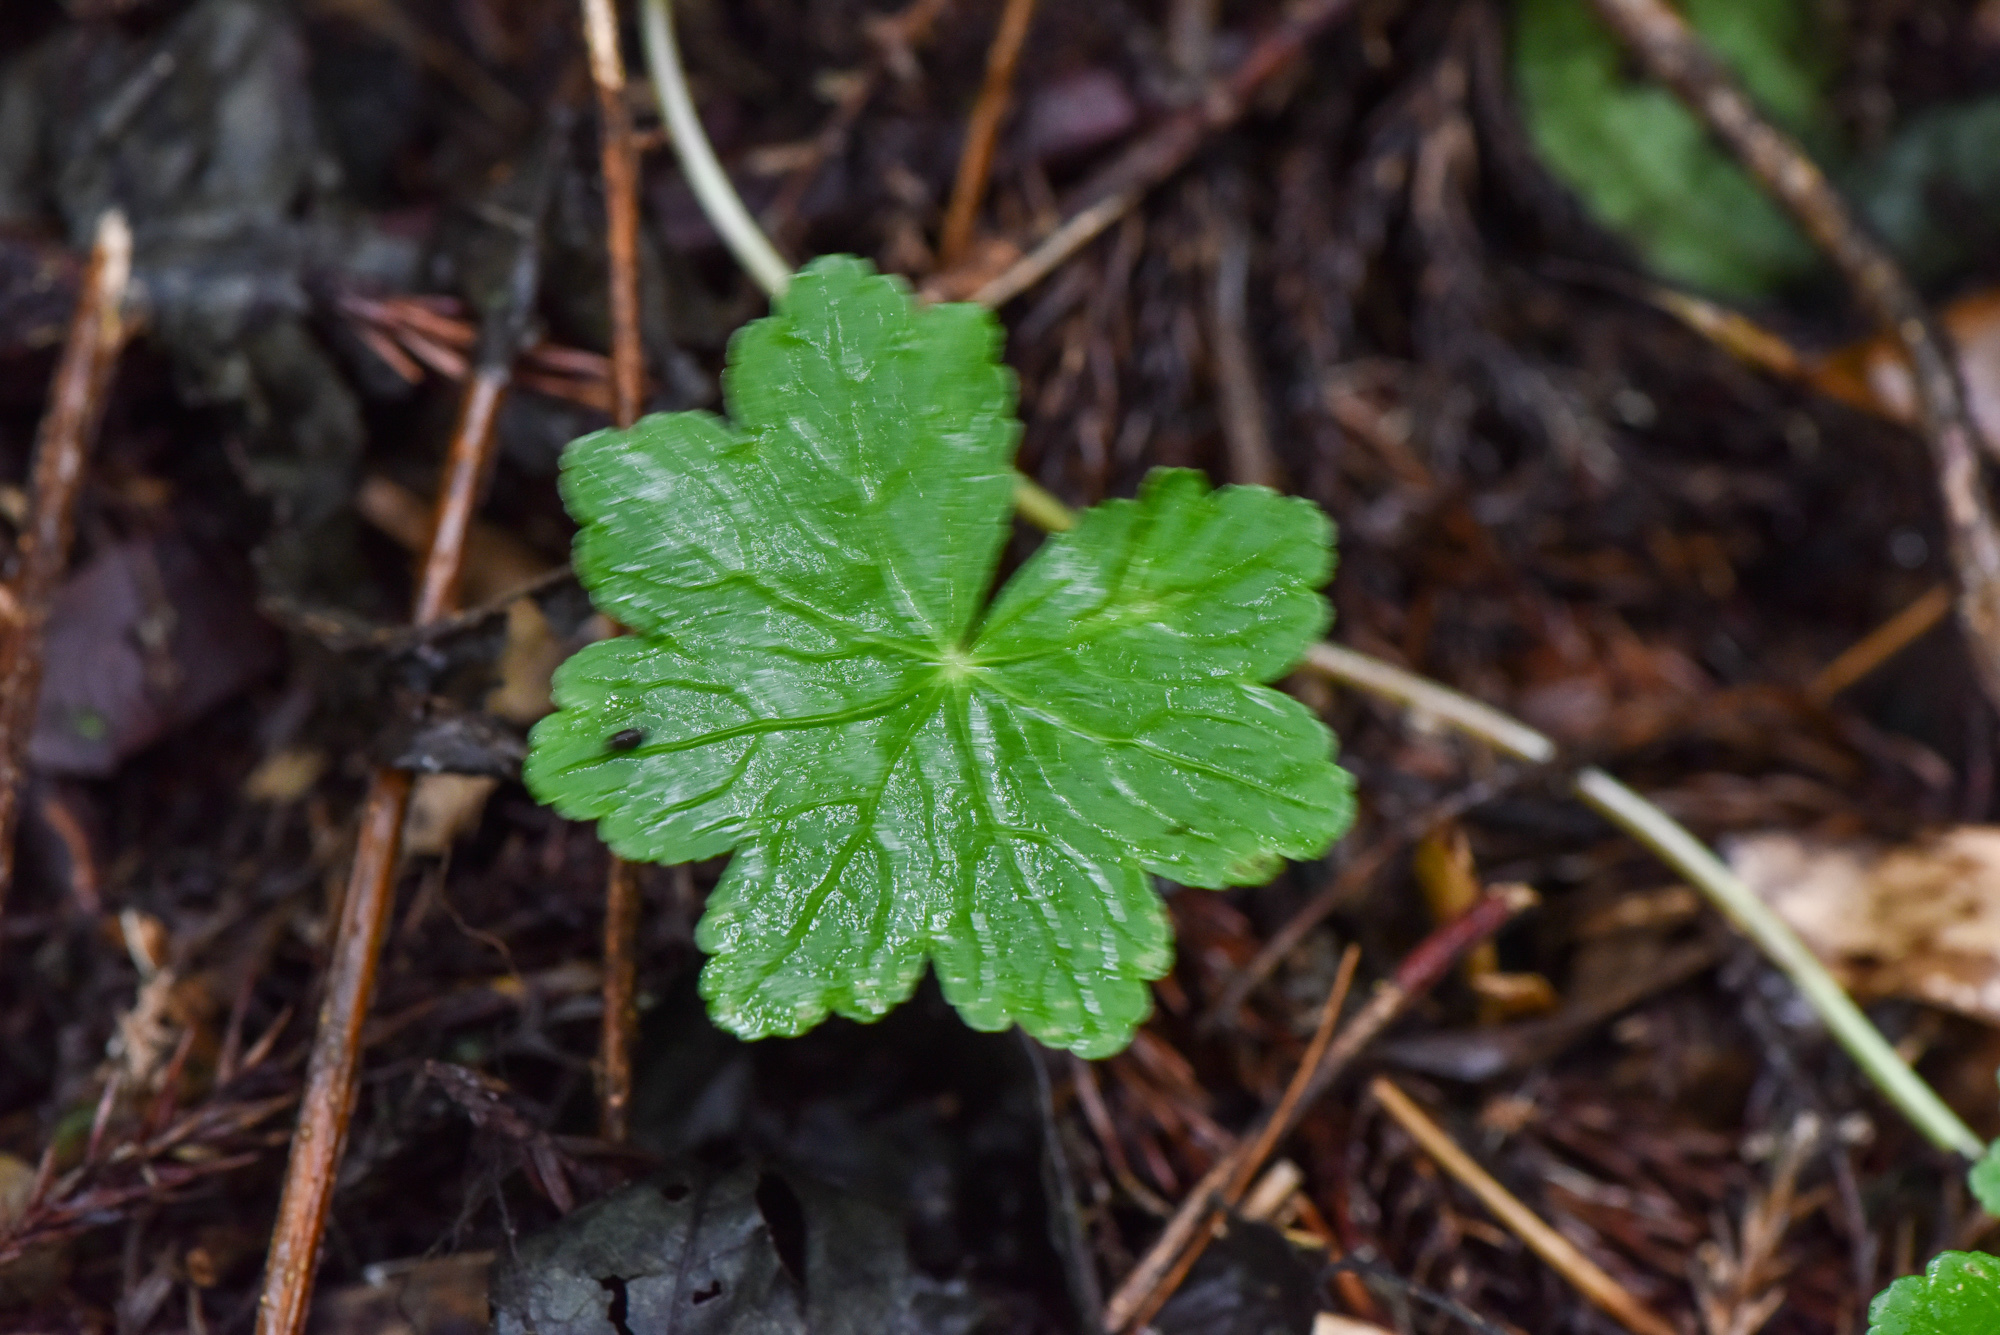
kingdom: Plantae
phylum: Tracheophyta
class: Magnoliopsida
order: Apiales
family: Araliaceae
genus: Hydrocotyle
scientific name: Hydrocotyle setulosa
